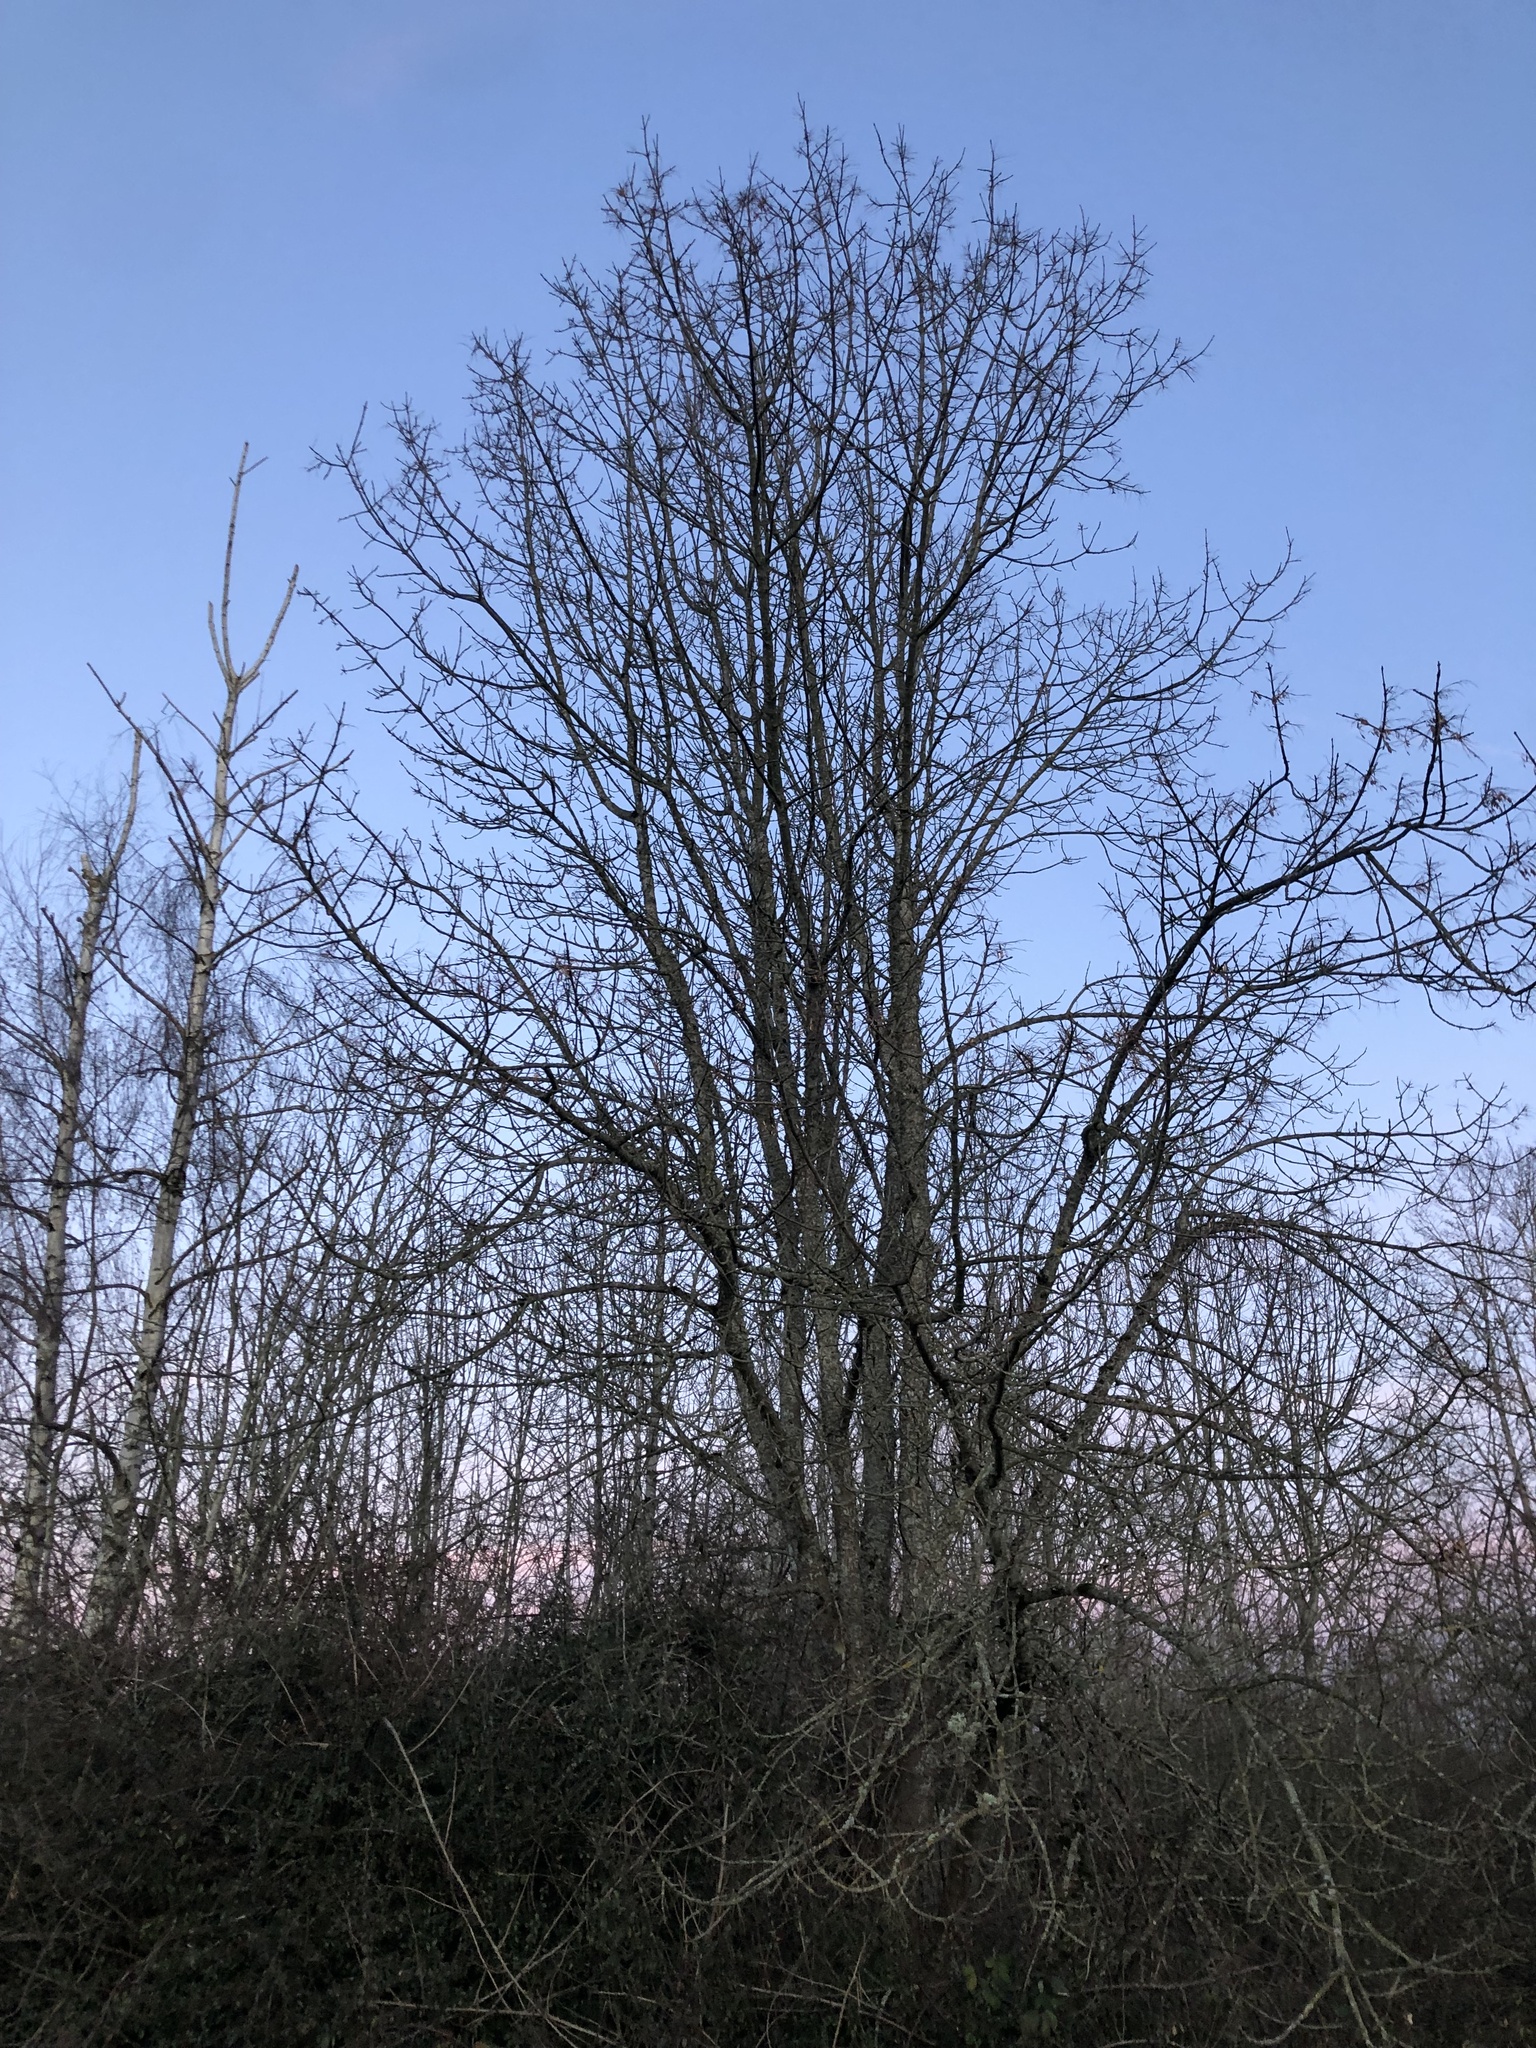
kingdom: Plantae
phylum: Tracheophyta
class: Magnoliopsida
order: Lamiales
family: Oleaceae
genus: Fraxinus
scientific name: Fraxinus latifolia
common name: Oregon ash
